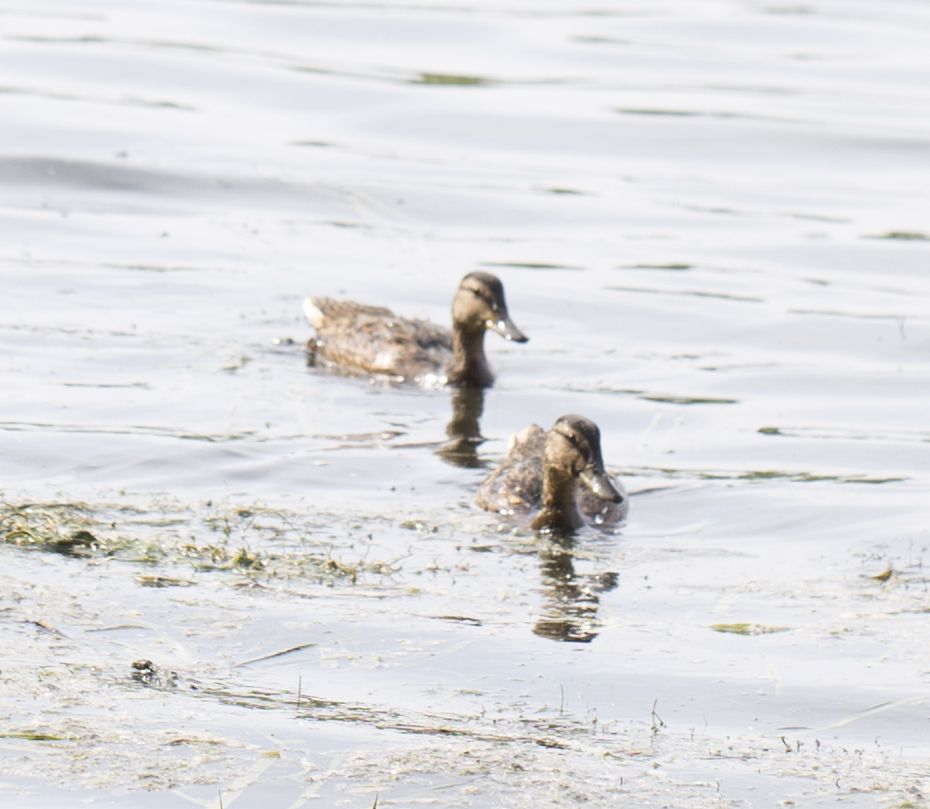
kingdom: Animalia
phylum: Chordata
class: Aves
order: Anseriformes
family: Anatidae
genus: Anas
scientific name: Anas platyrhynchos
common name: Mallard
